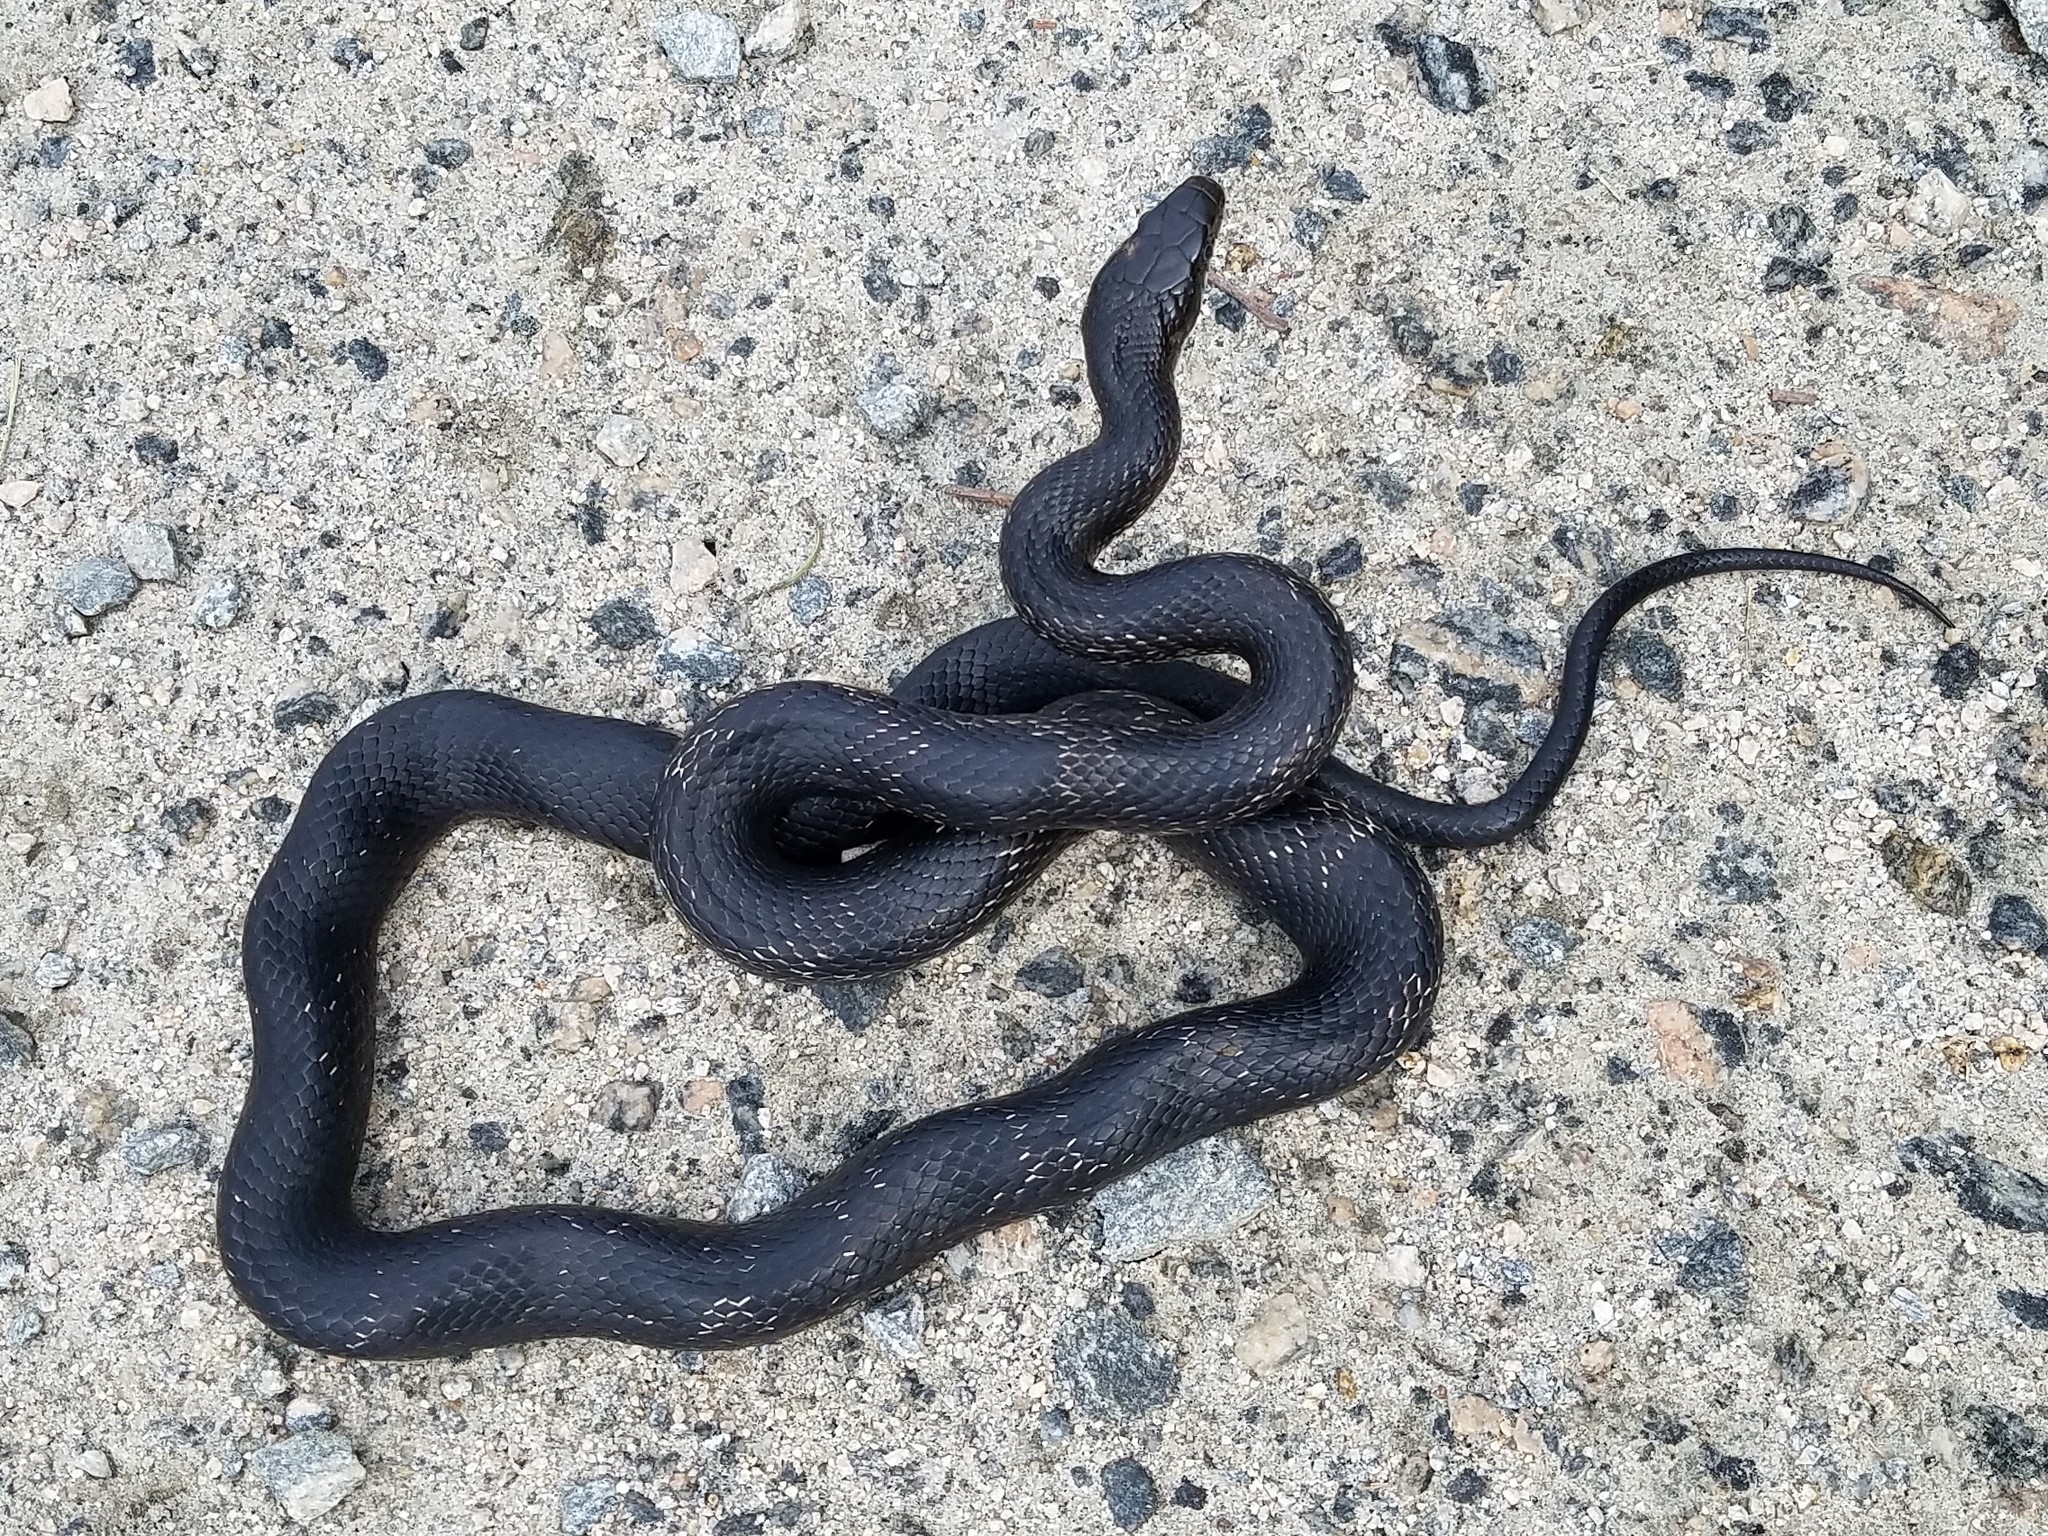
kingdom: Animalia
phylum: Chordata
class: Squamata
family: Colubridae
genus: Pantherophis
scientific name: Pantherophis alleghaniensis
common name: Eastern rat snake
